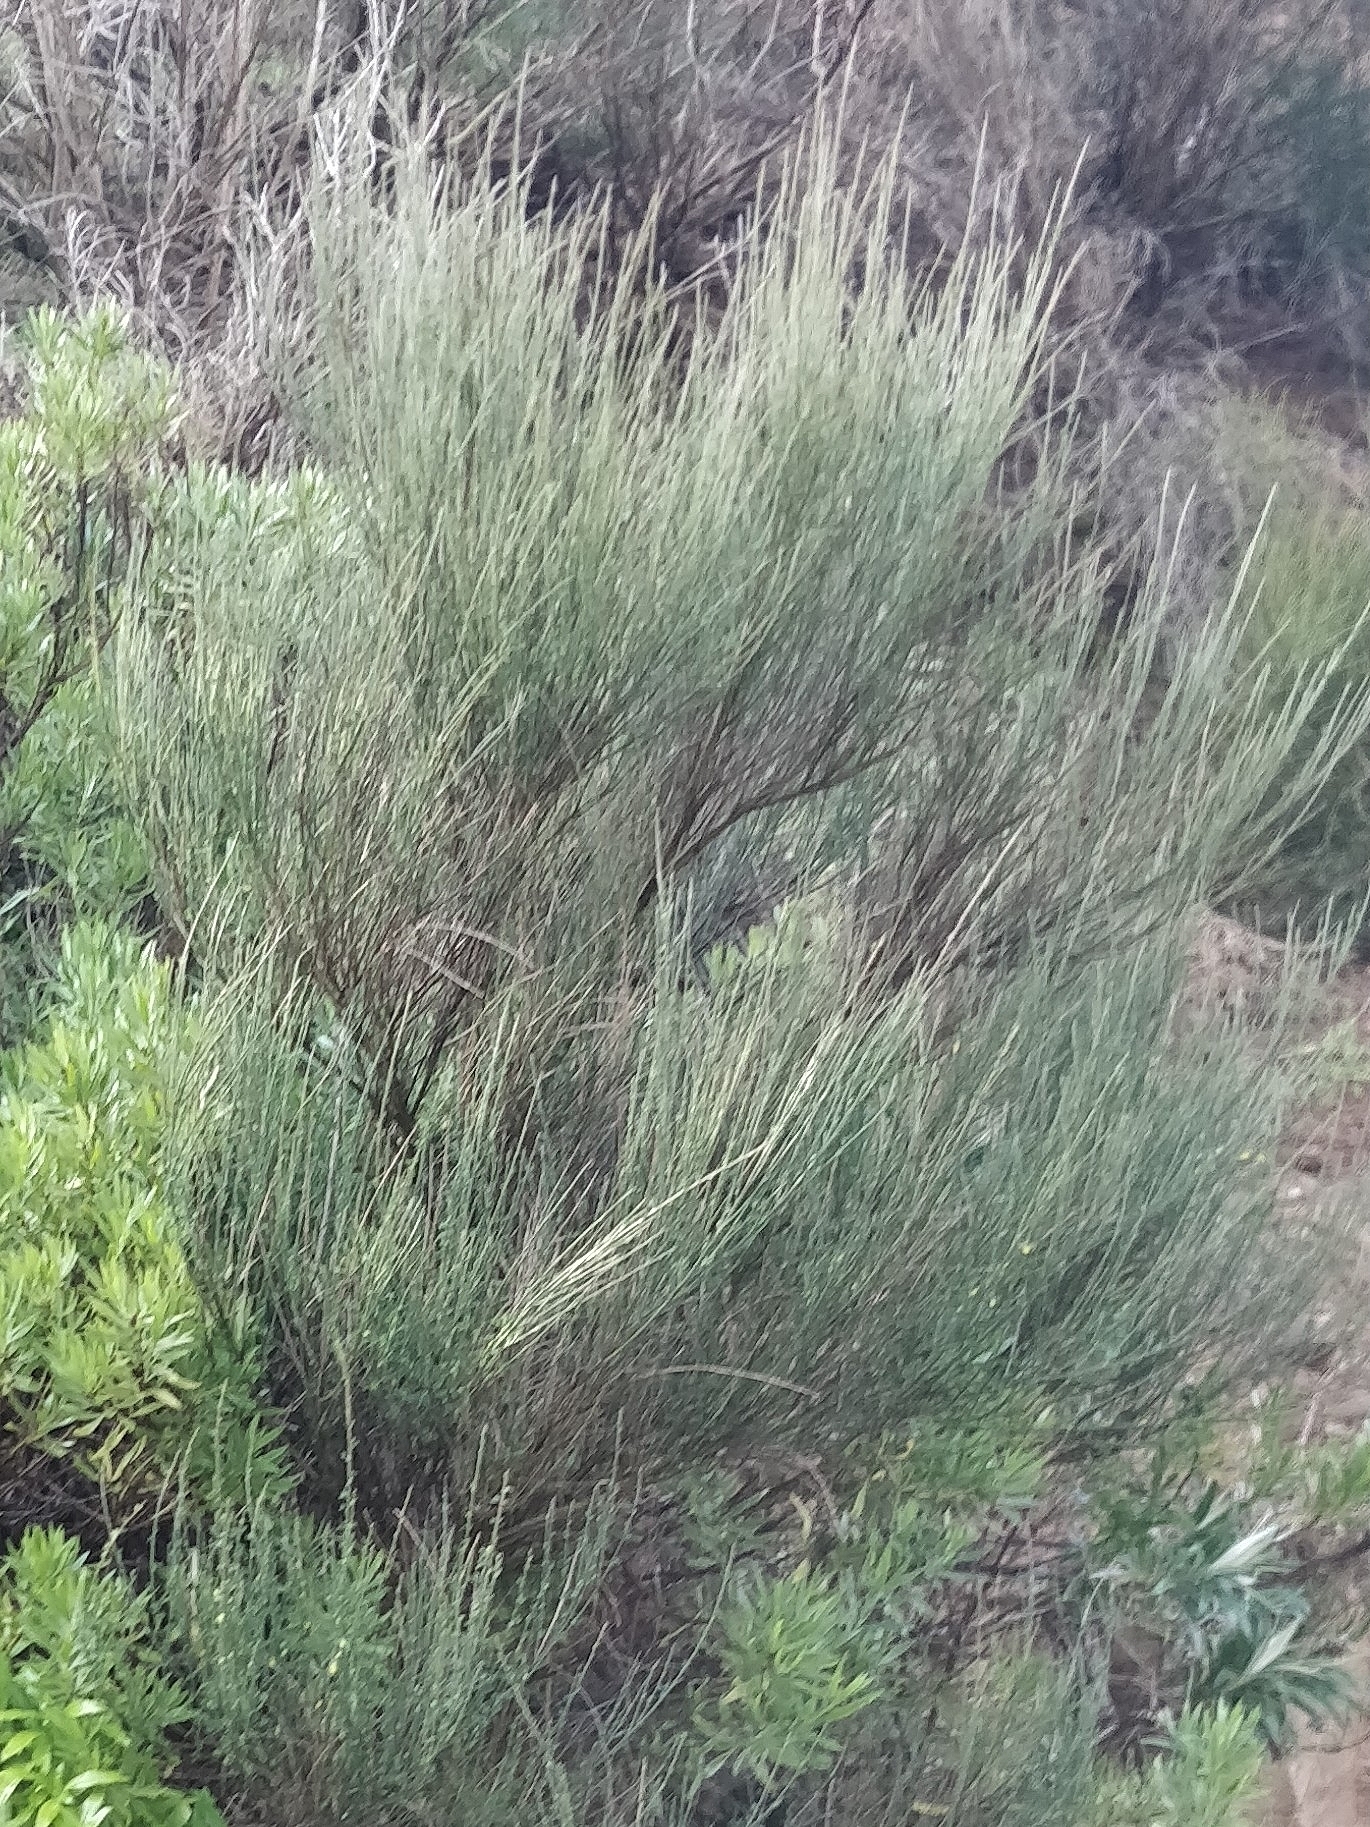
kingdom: Plantae
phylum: Tracheophyta
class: Magnoliopsida
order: Fabales
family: Fabaceae
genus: Cytisus
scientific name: Cytisus scoparius
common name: Scotch broom
